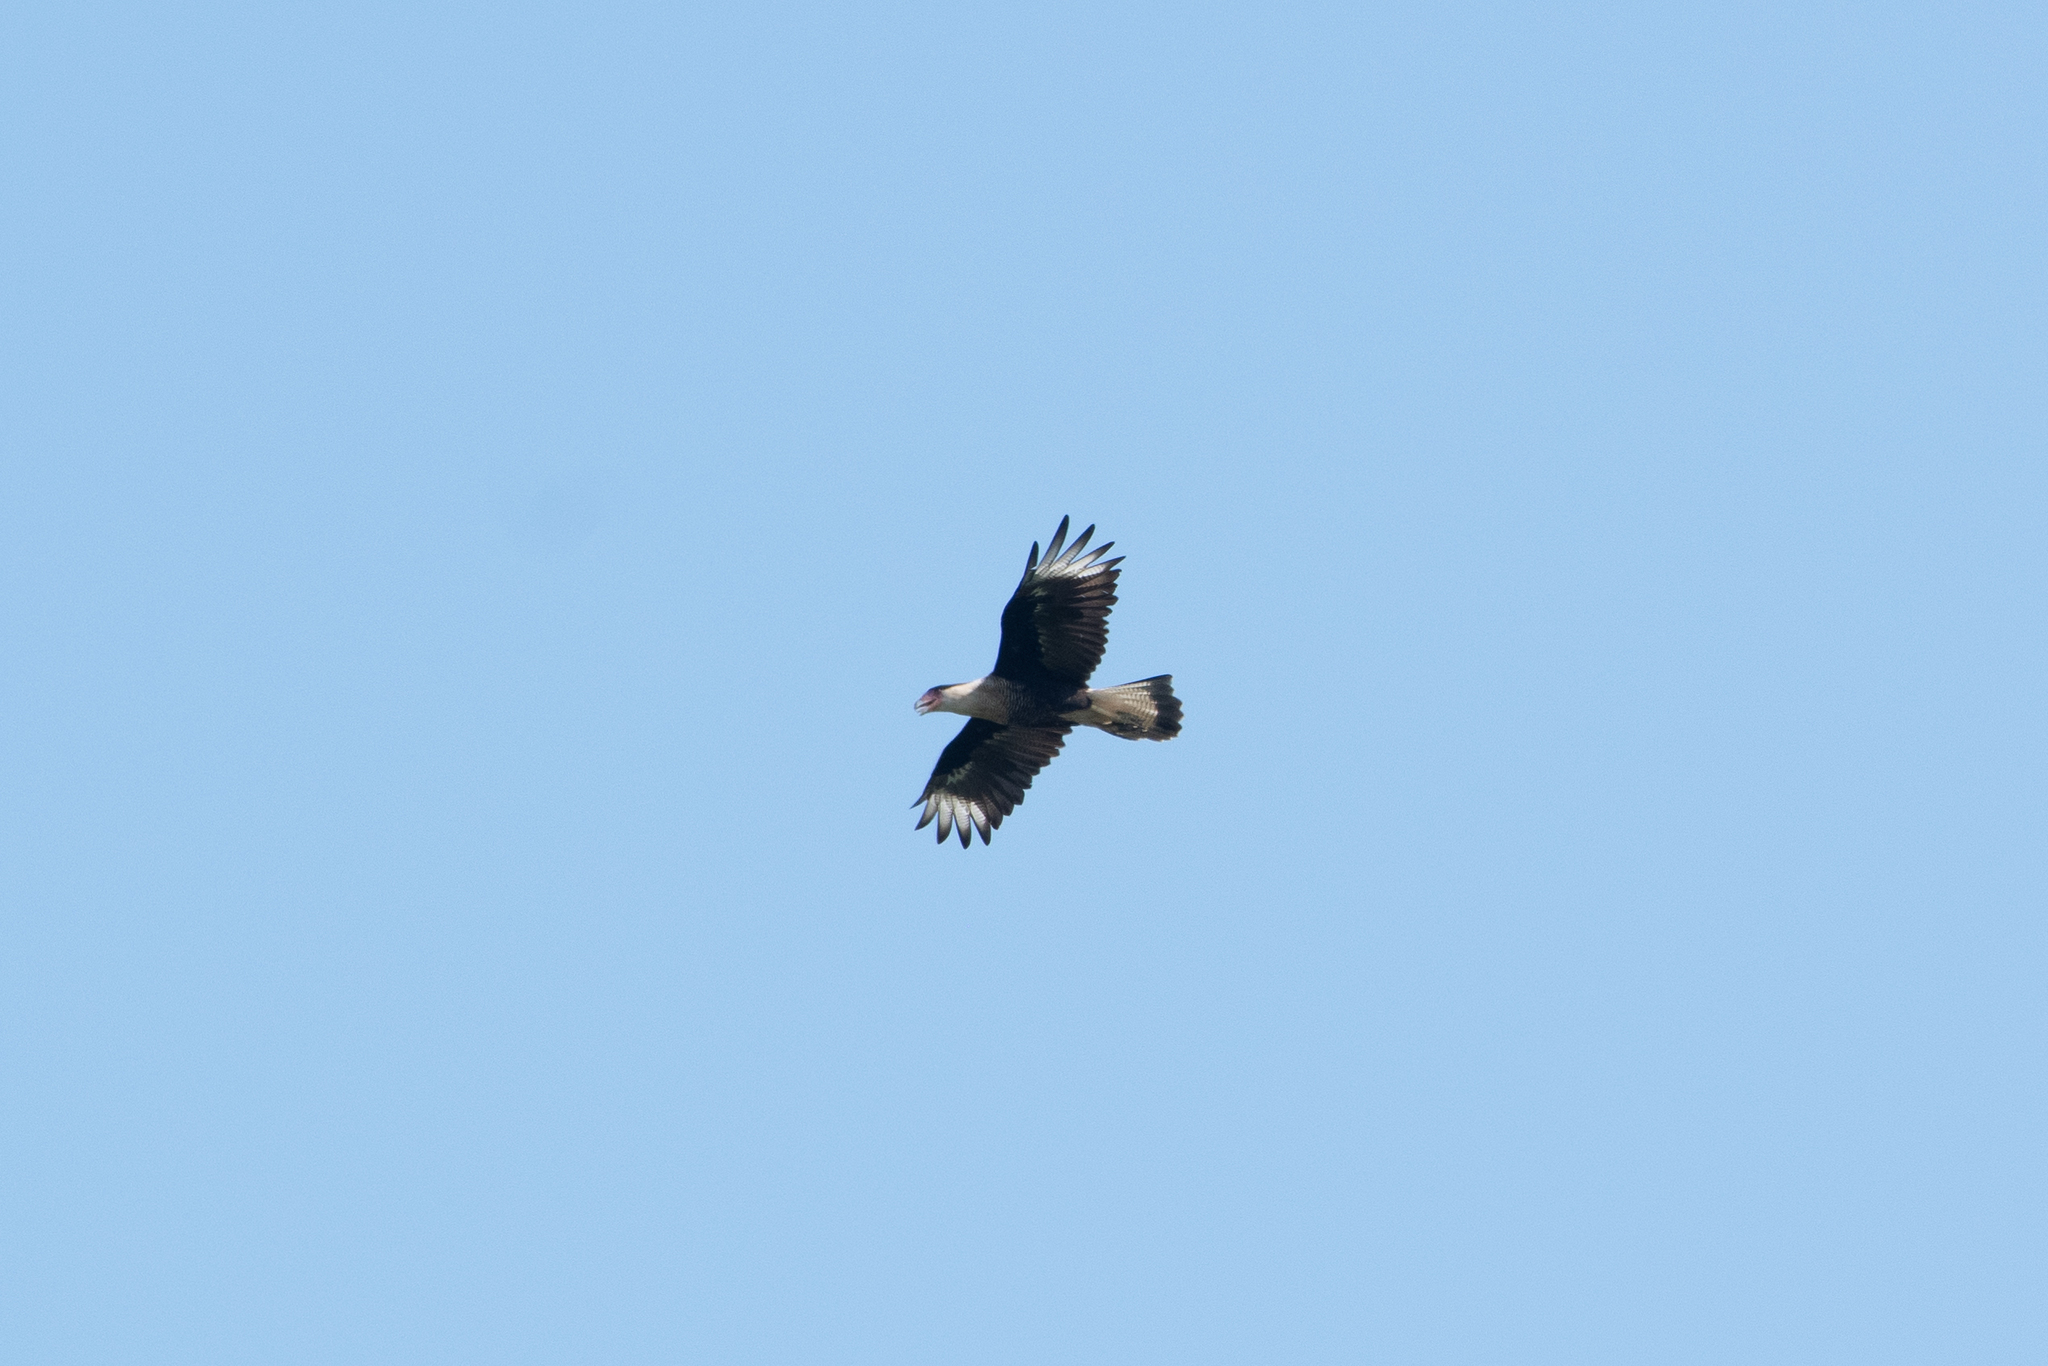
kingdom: Animalia
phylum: Chordata
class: Aves
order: Falconiformes
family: Falconidae
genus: Caracara
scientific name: Caracara plancus
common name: Southern caracara
